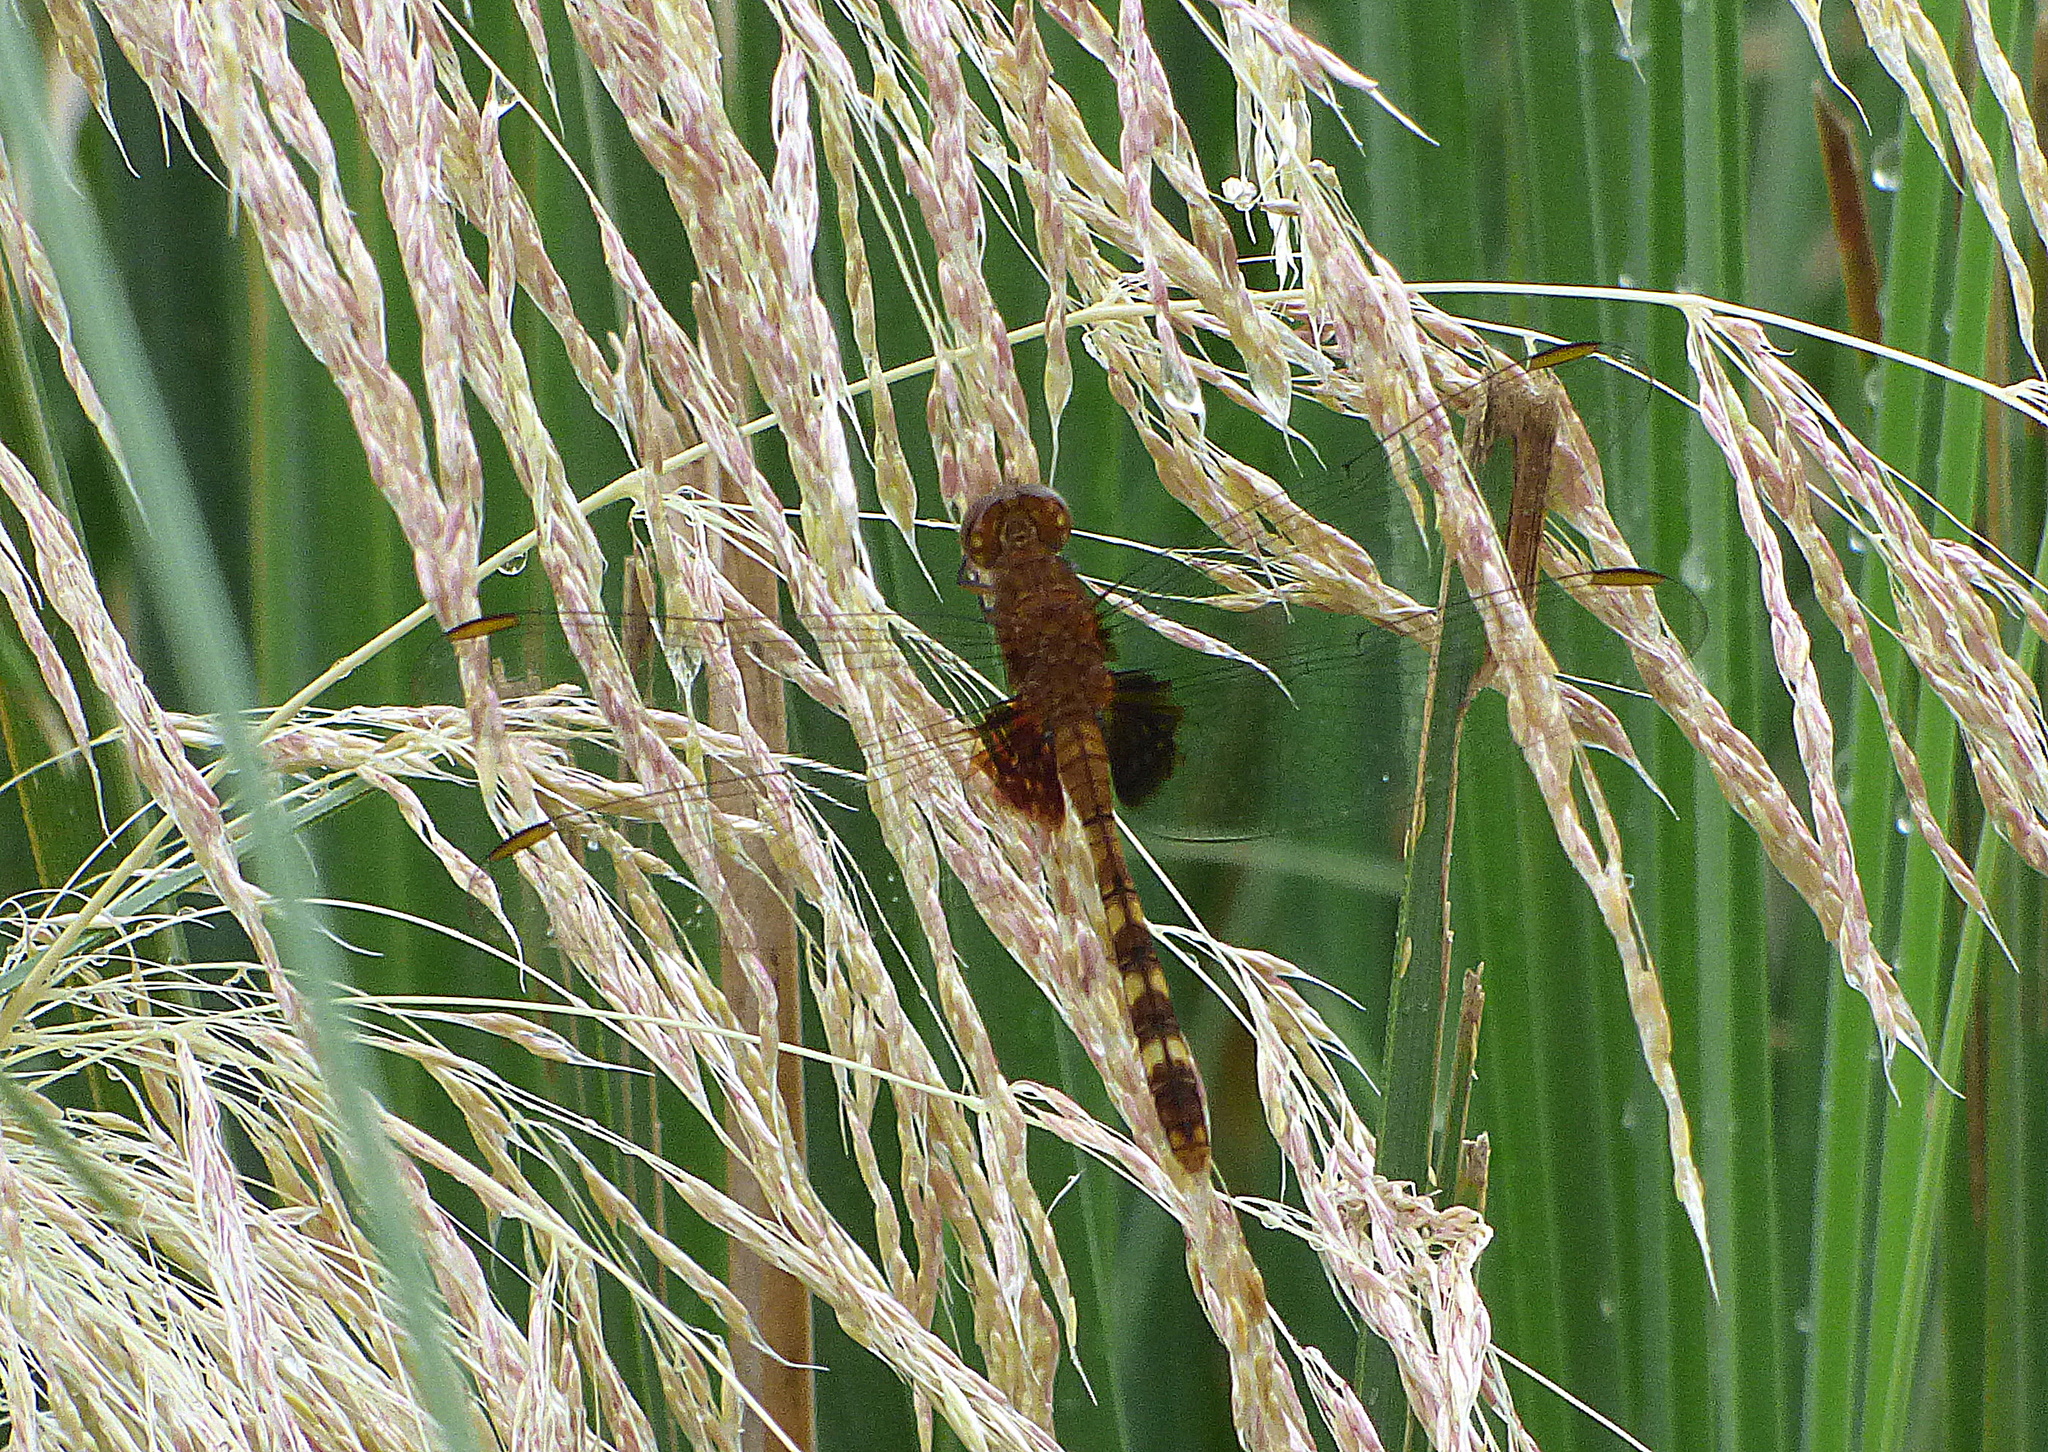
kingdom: Animalia
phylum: Arthropoda
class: Insecta
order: Odonata
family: Libellulidae
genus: Erythemis
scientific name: Erythemis attala
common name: Black pondhawk
